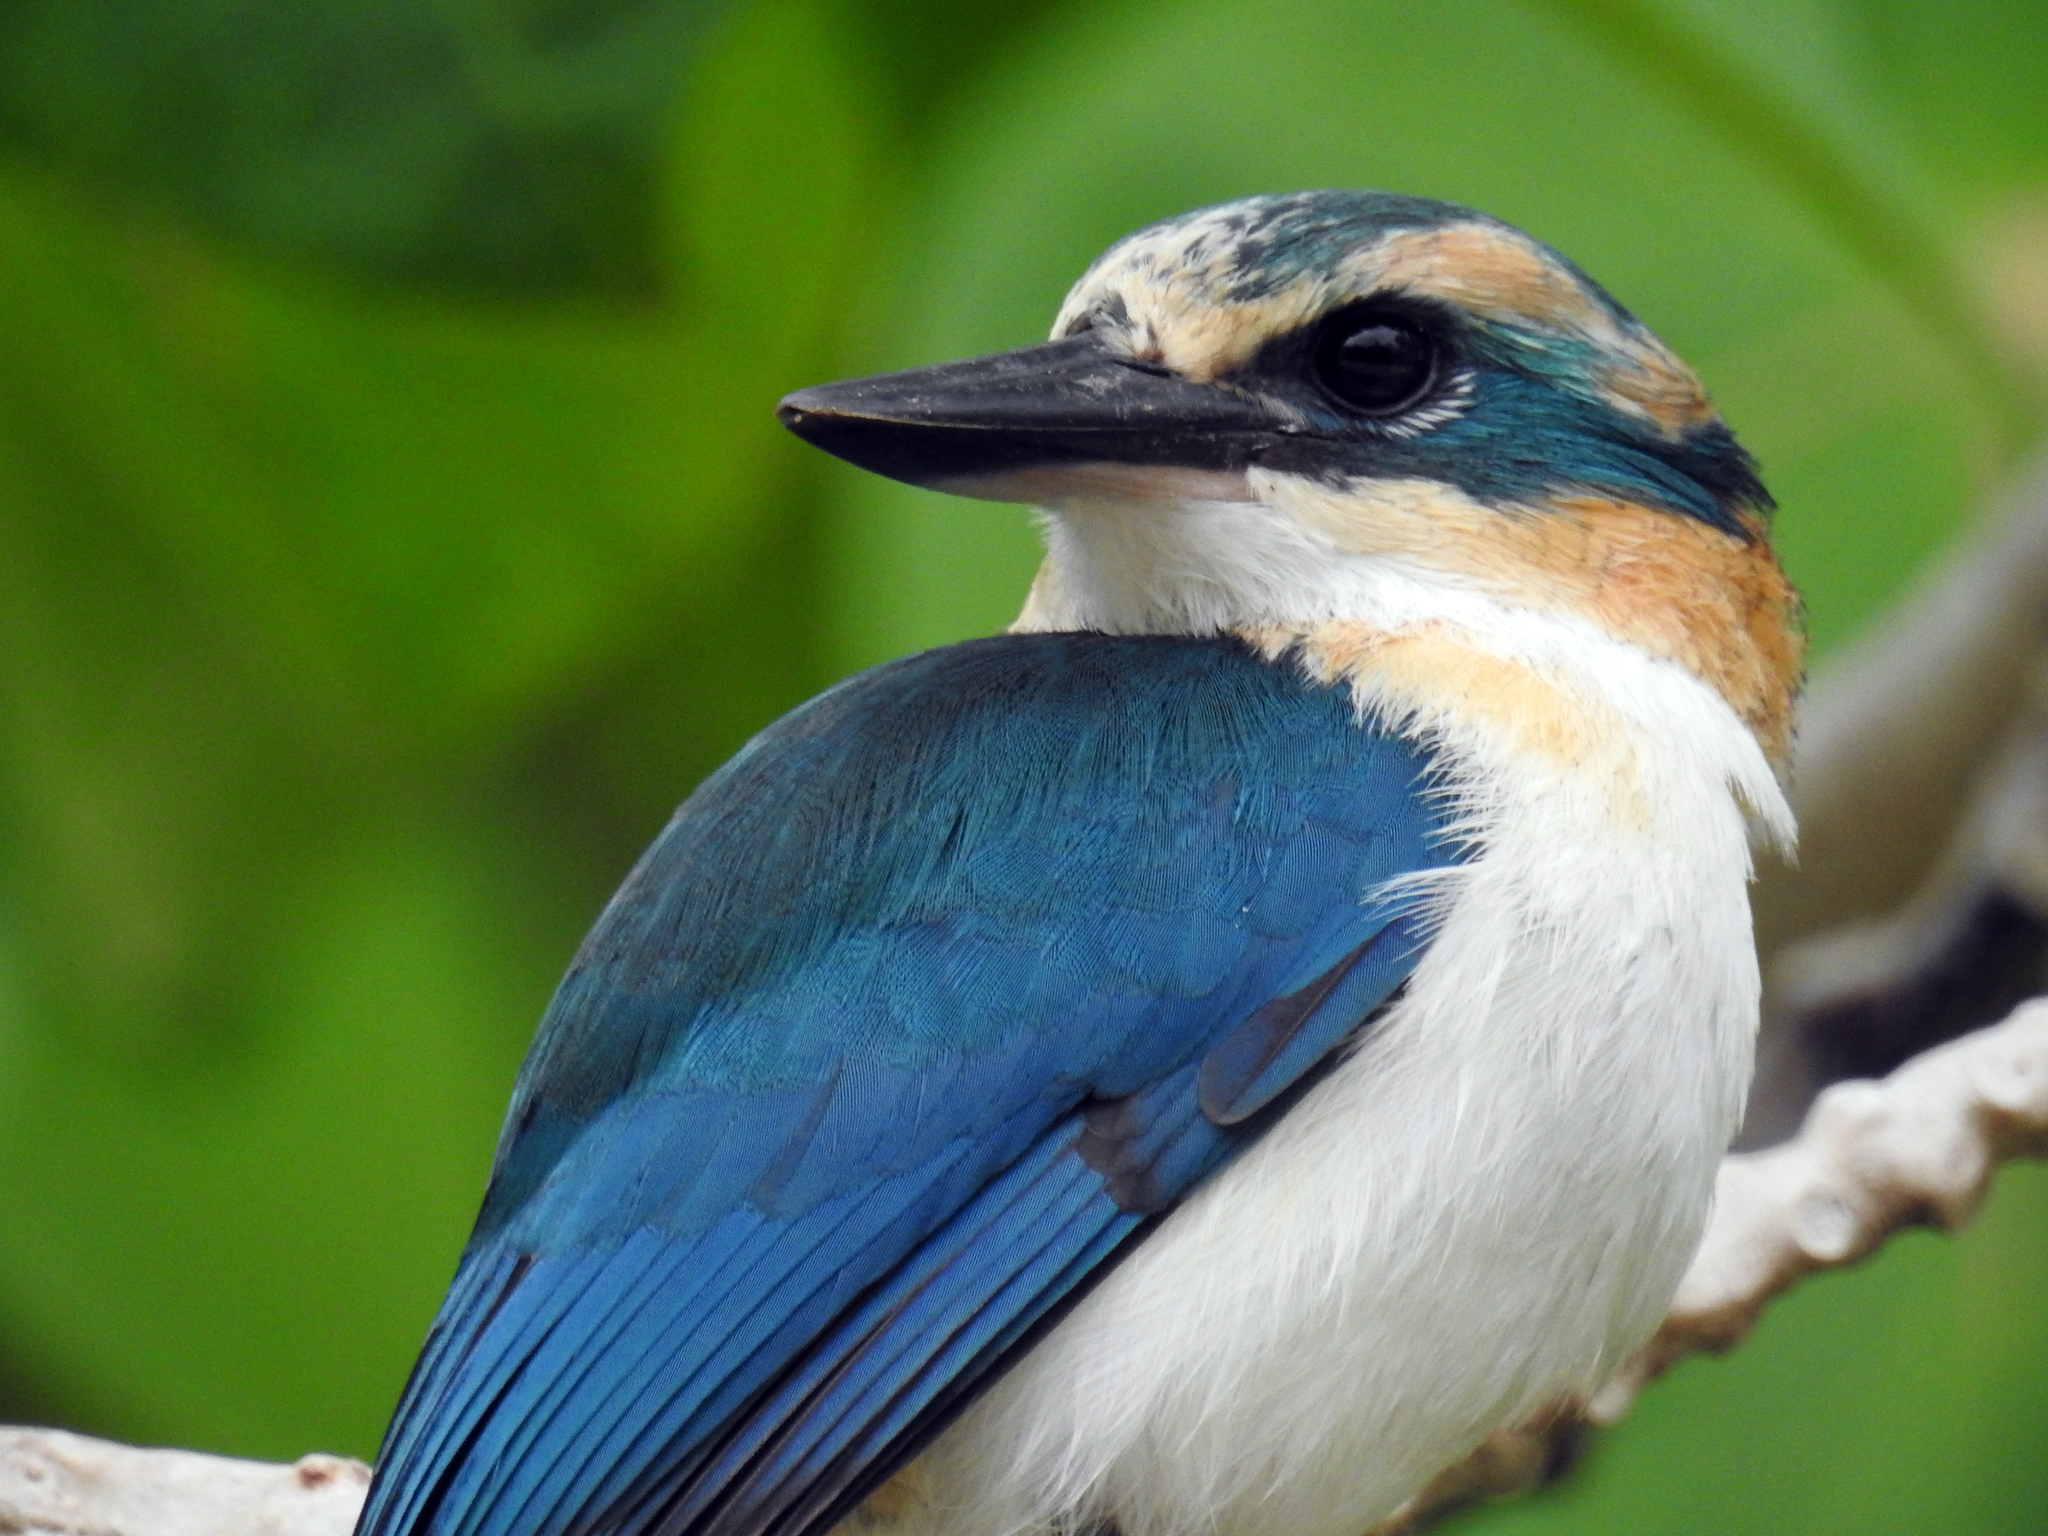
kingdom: Animalia
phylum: Chordata
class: Aves
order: Coraciiformes
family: Alcedinidae
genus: Todiramphus
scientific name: Todiramphus ruficollaris
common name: Mewing kingfisher
